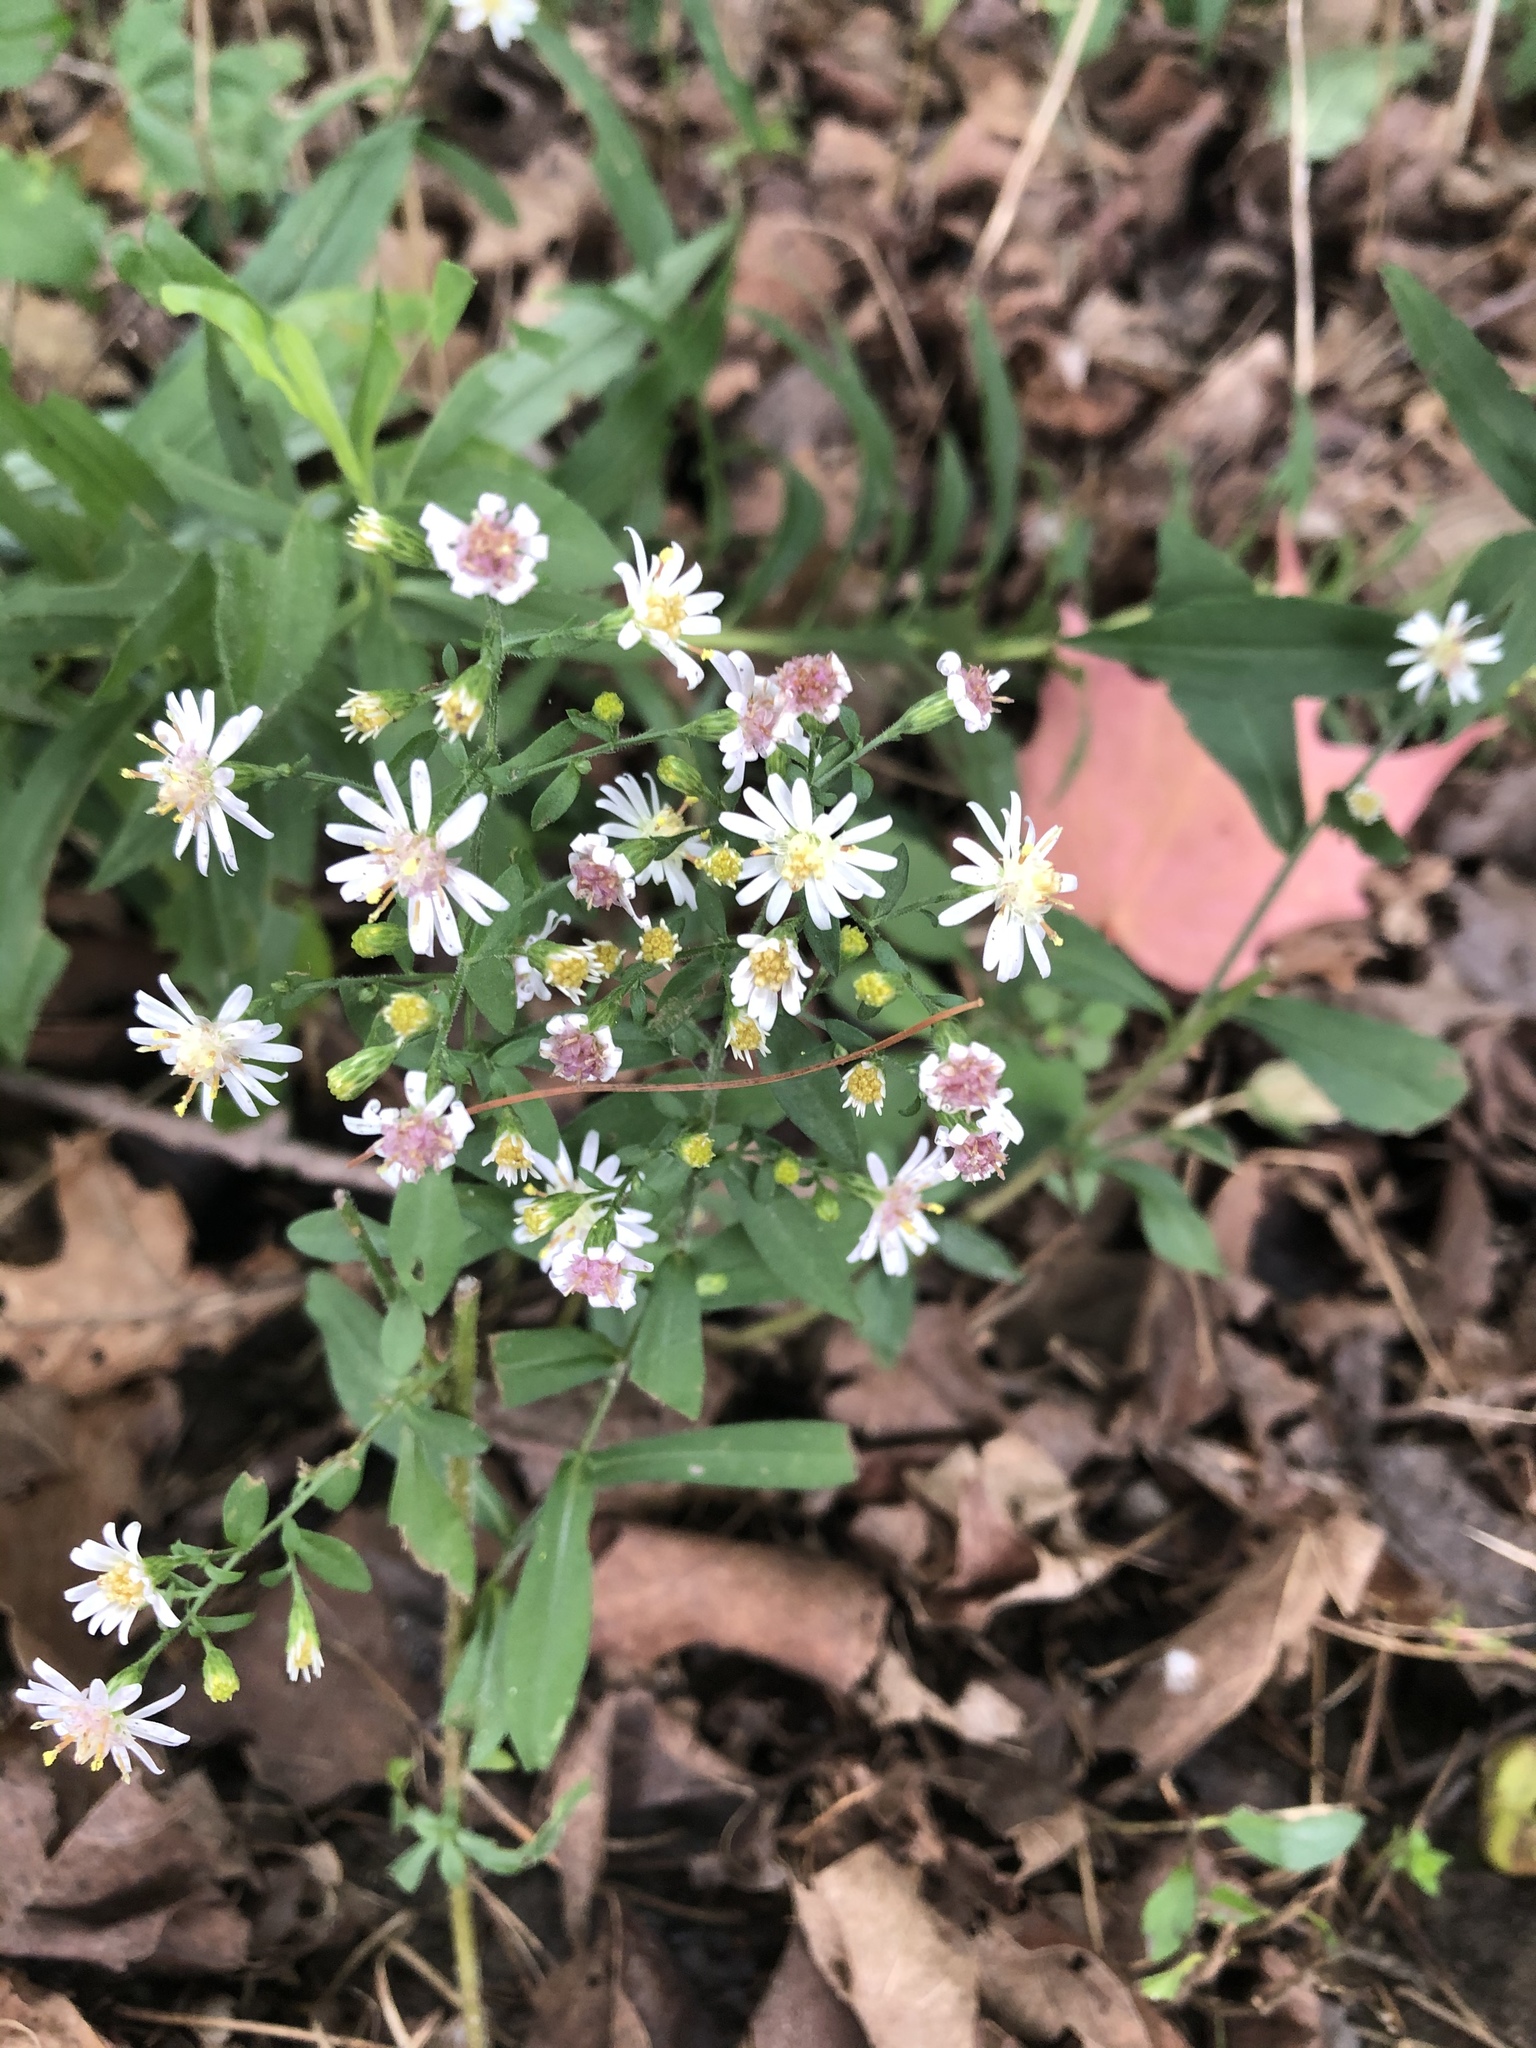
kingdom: Plantae
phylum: Tracheophyta
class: Magnoliopsida
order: Asterales
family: Asteraceae
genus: Symphyotrichum
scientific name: Symphyotrichum lateriflorum
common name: Calico aster
